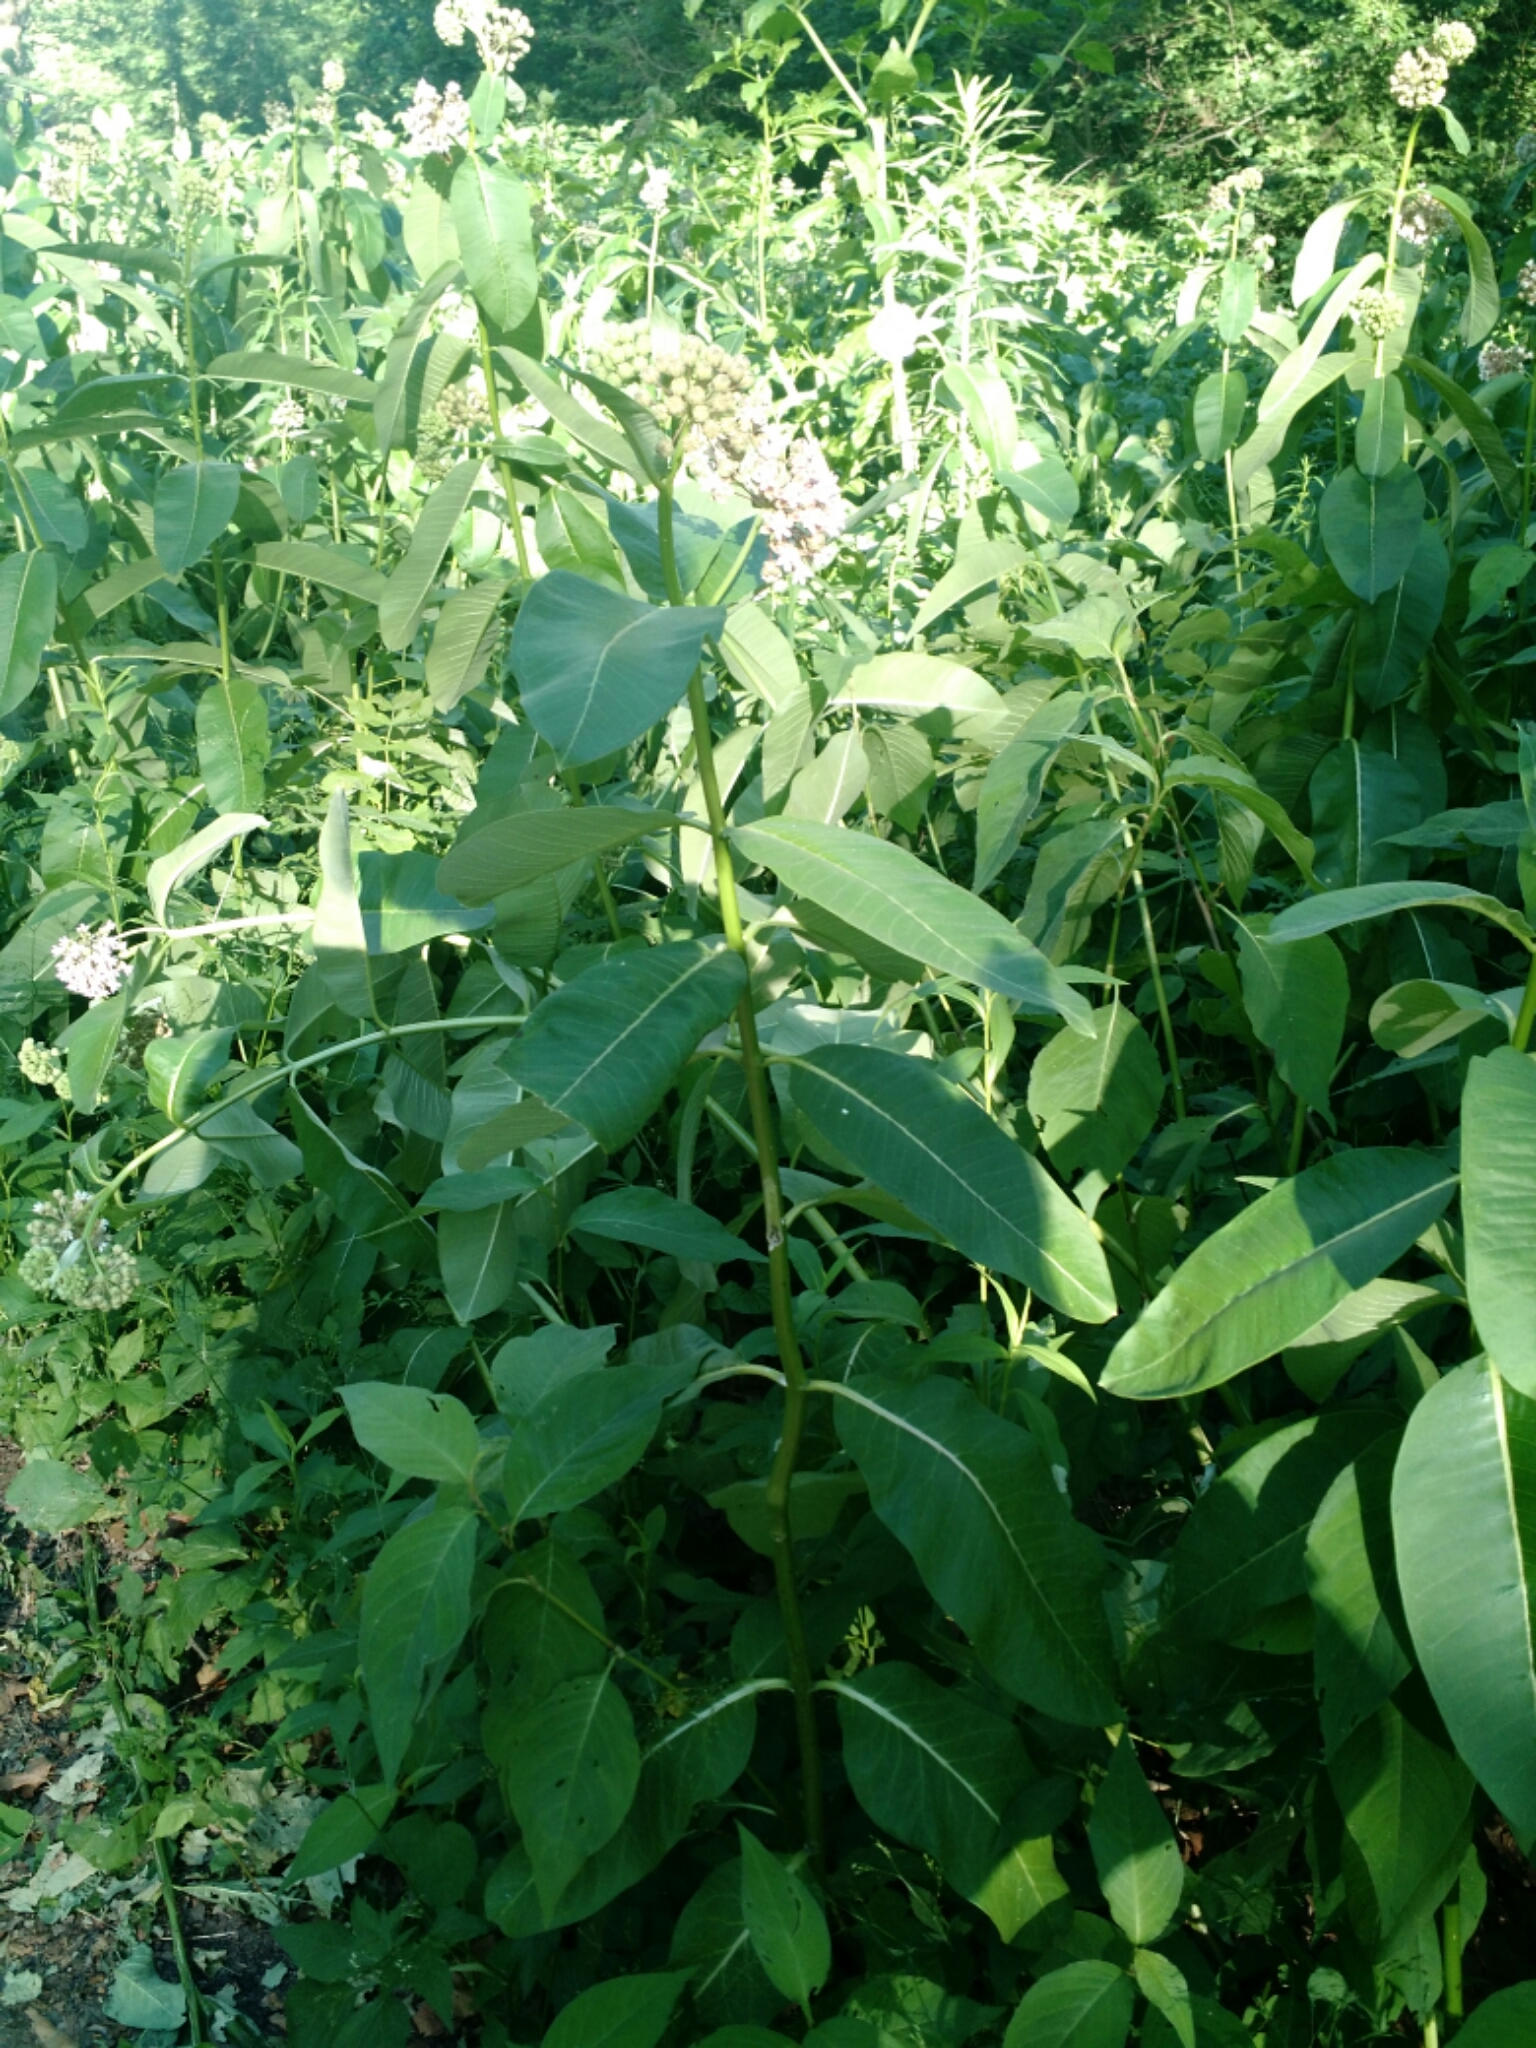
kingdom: Plantae
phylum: Tracheophyta
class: Magnoliopsida
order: Gentianales
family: Apocynaceae
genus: Asclepias
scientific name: Asclepias syriaca
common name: Common milkweed
